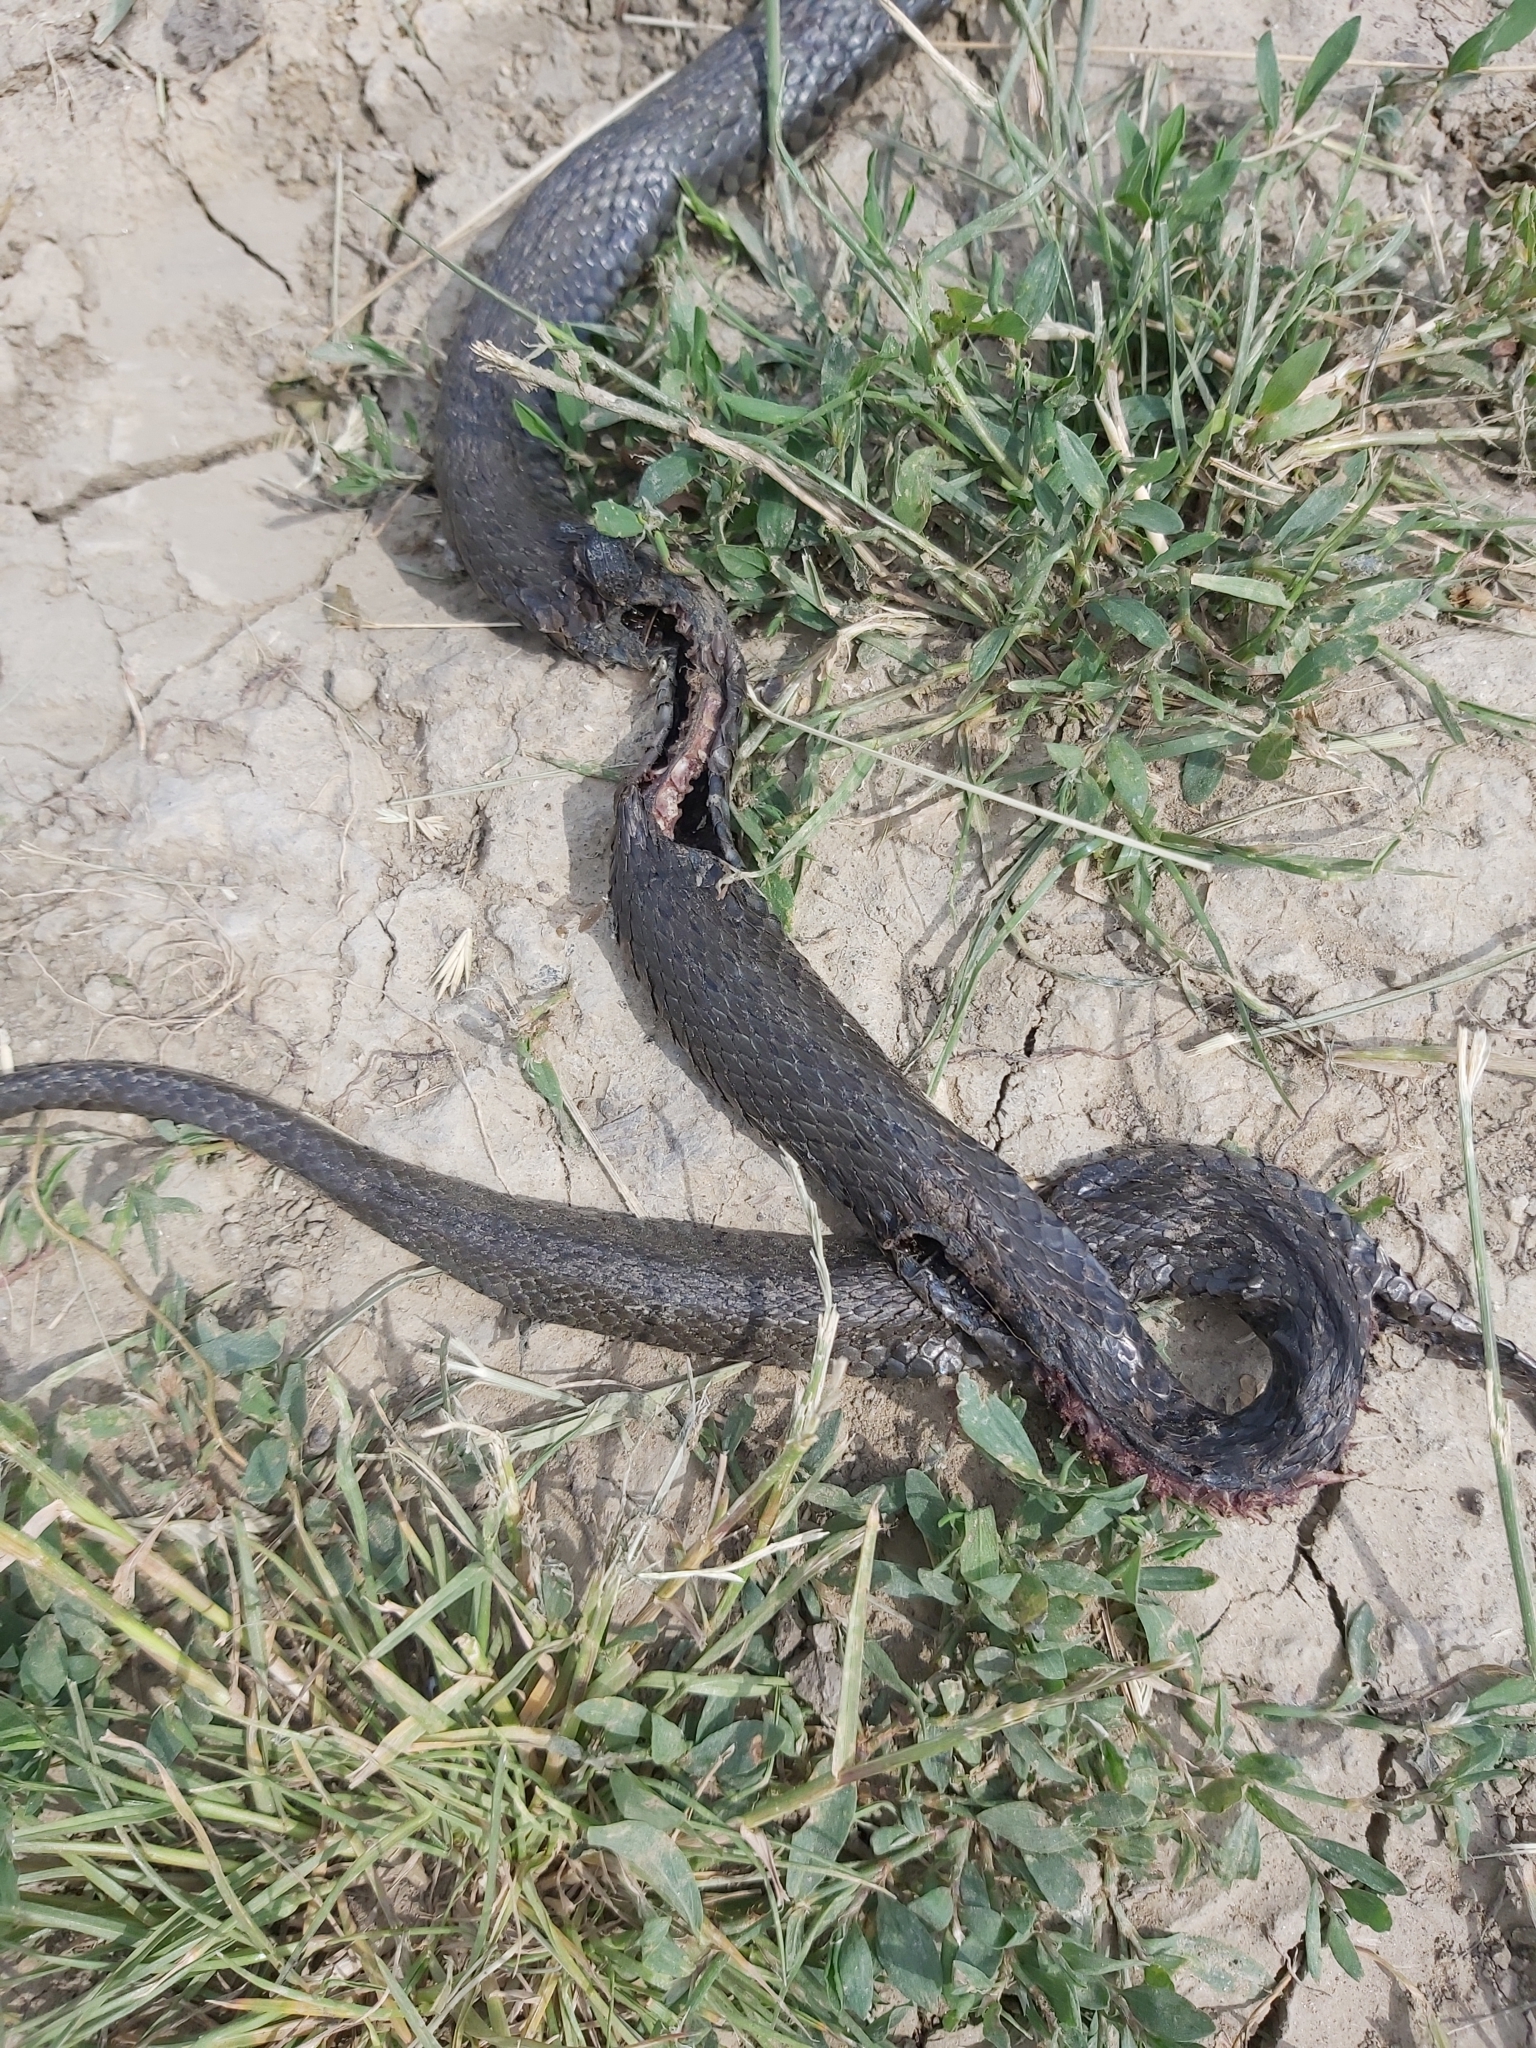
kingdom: Animalia
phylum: Chordata
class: Squamata
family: Colubridae
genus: Natrix
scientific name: Natrix natrix
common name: Grass snake
